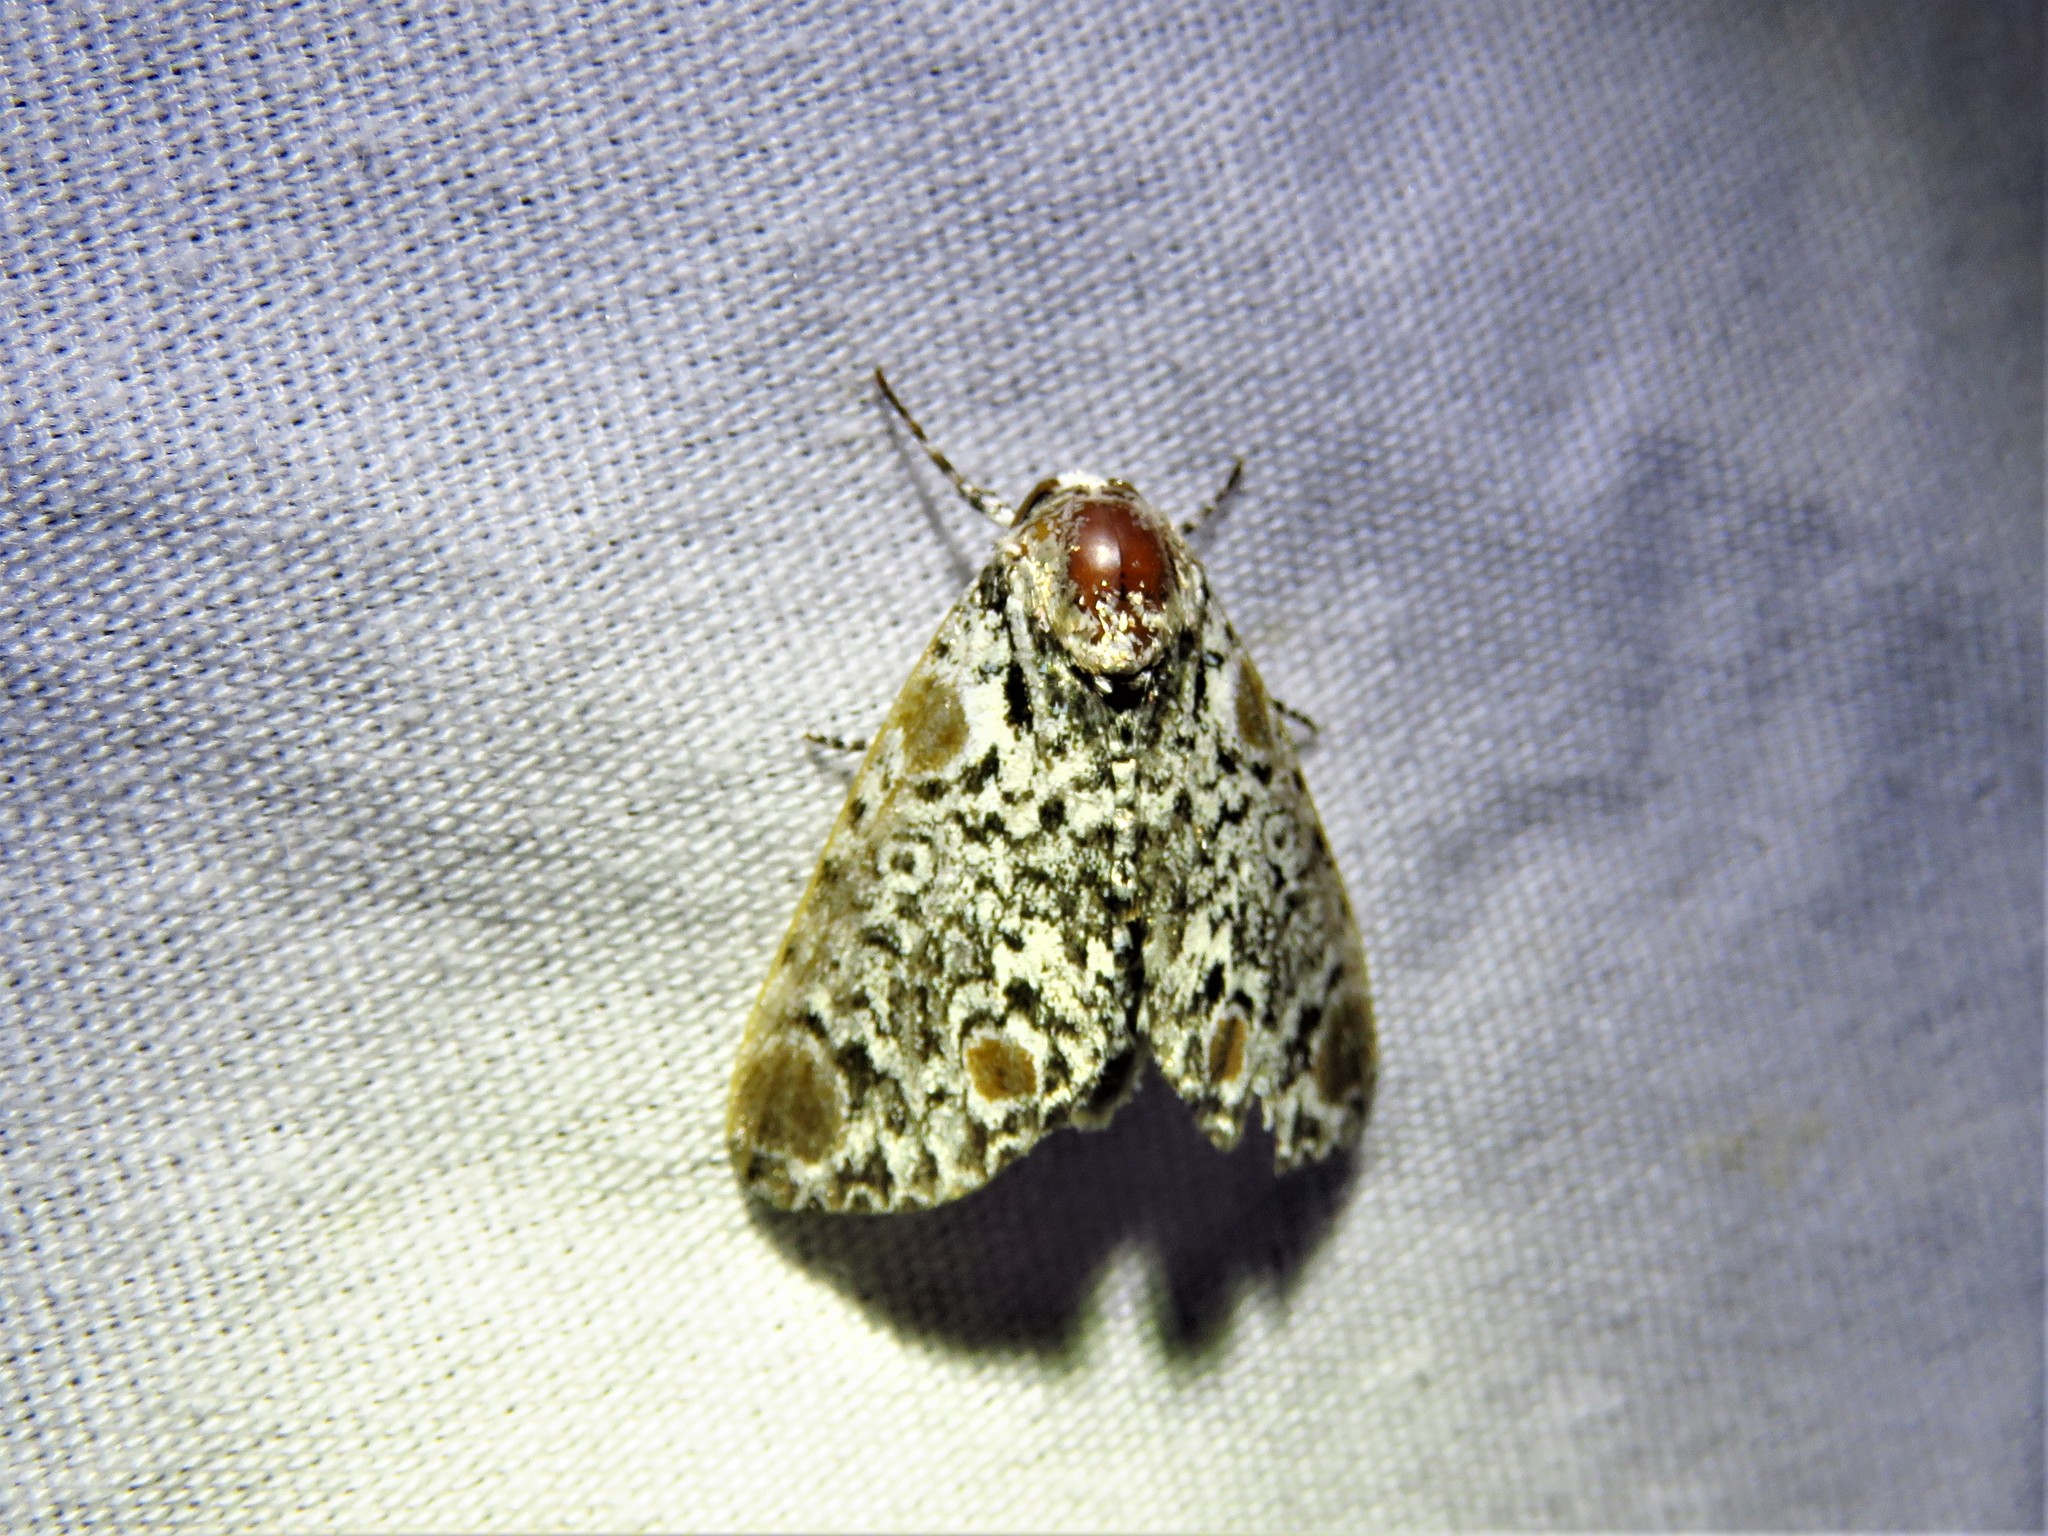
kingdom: Animalia
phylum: Arthropoda
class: Insecta
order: Lepidoptera
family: Noctuidae
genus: Harrisimemna
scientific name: Harrisimemna trisignata
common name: Harris threespot
